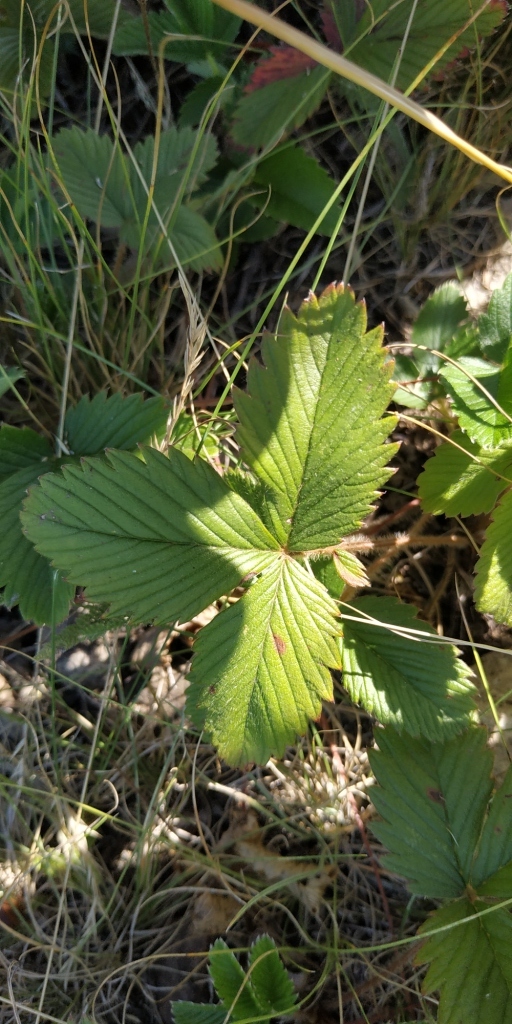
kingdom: Plantae
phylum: Tracheophyta
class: Magnoliopsida
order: Rosales
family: Rosaceae
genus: Fragaria
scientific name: Fragaria viridis
